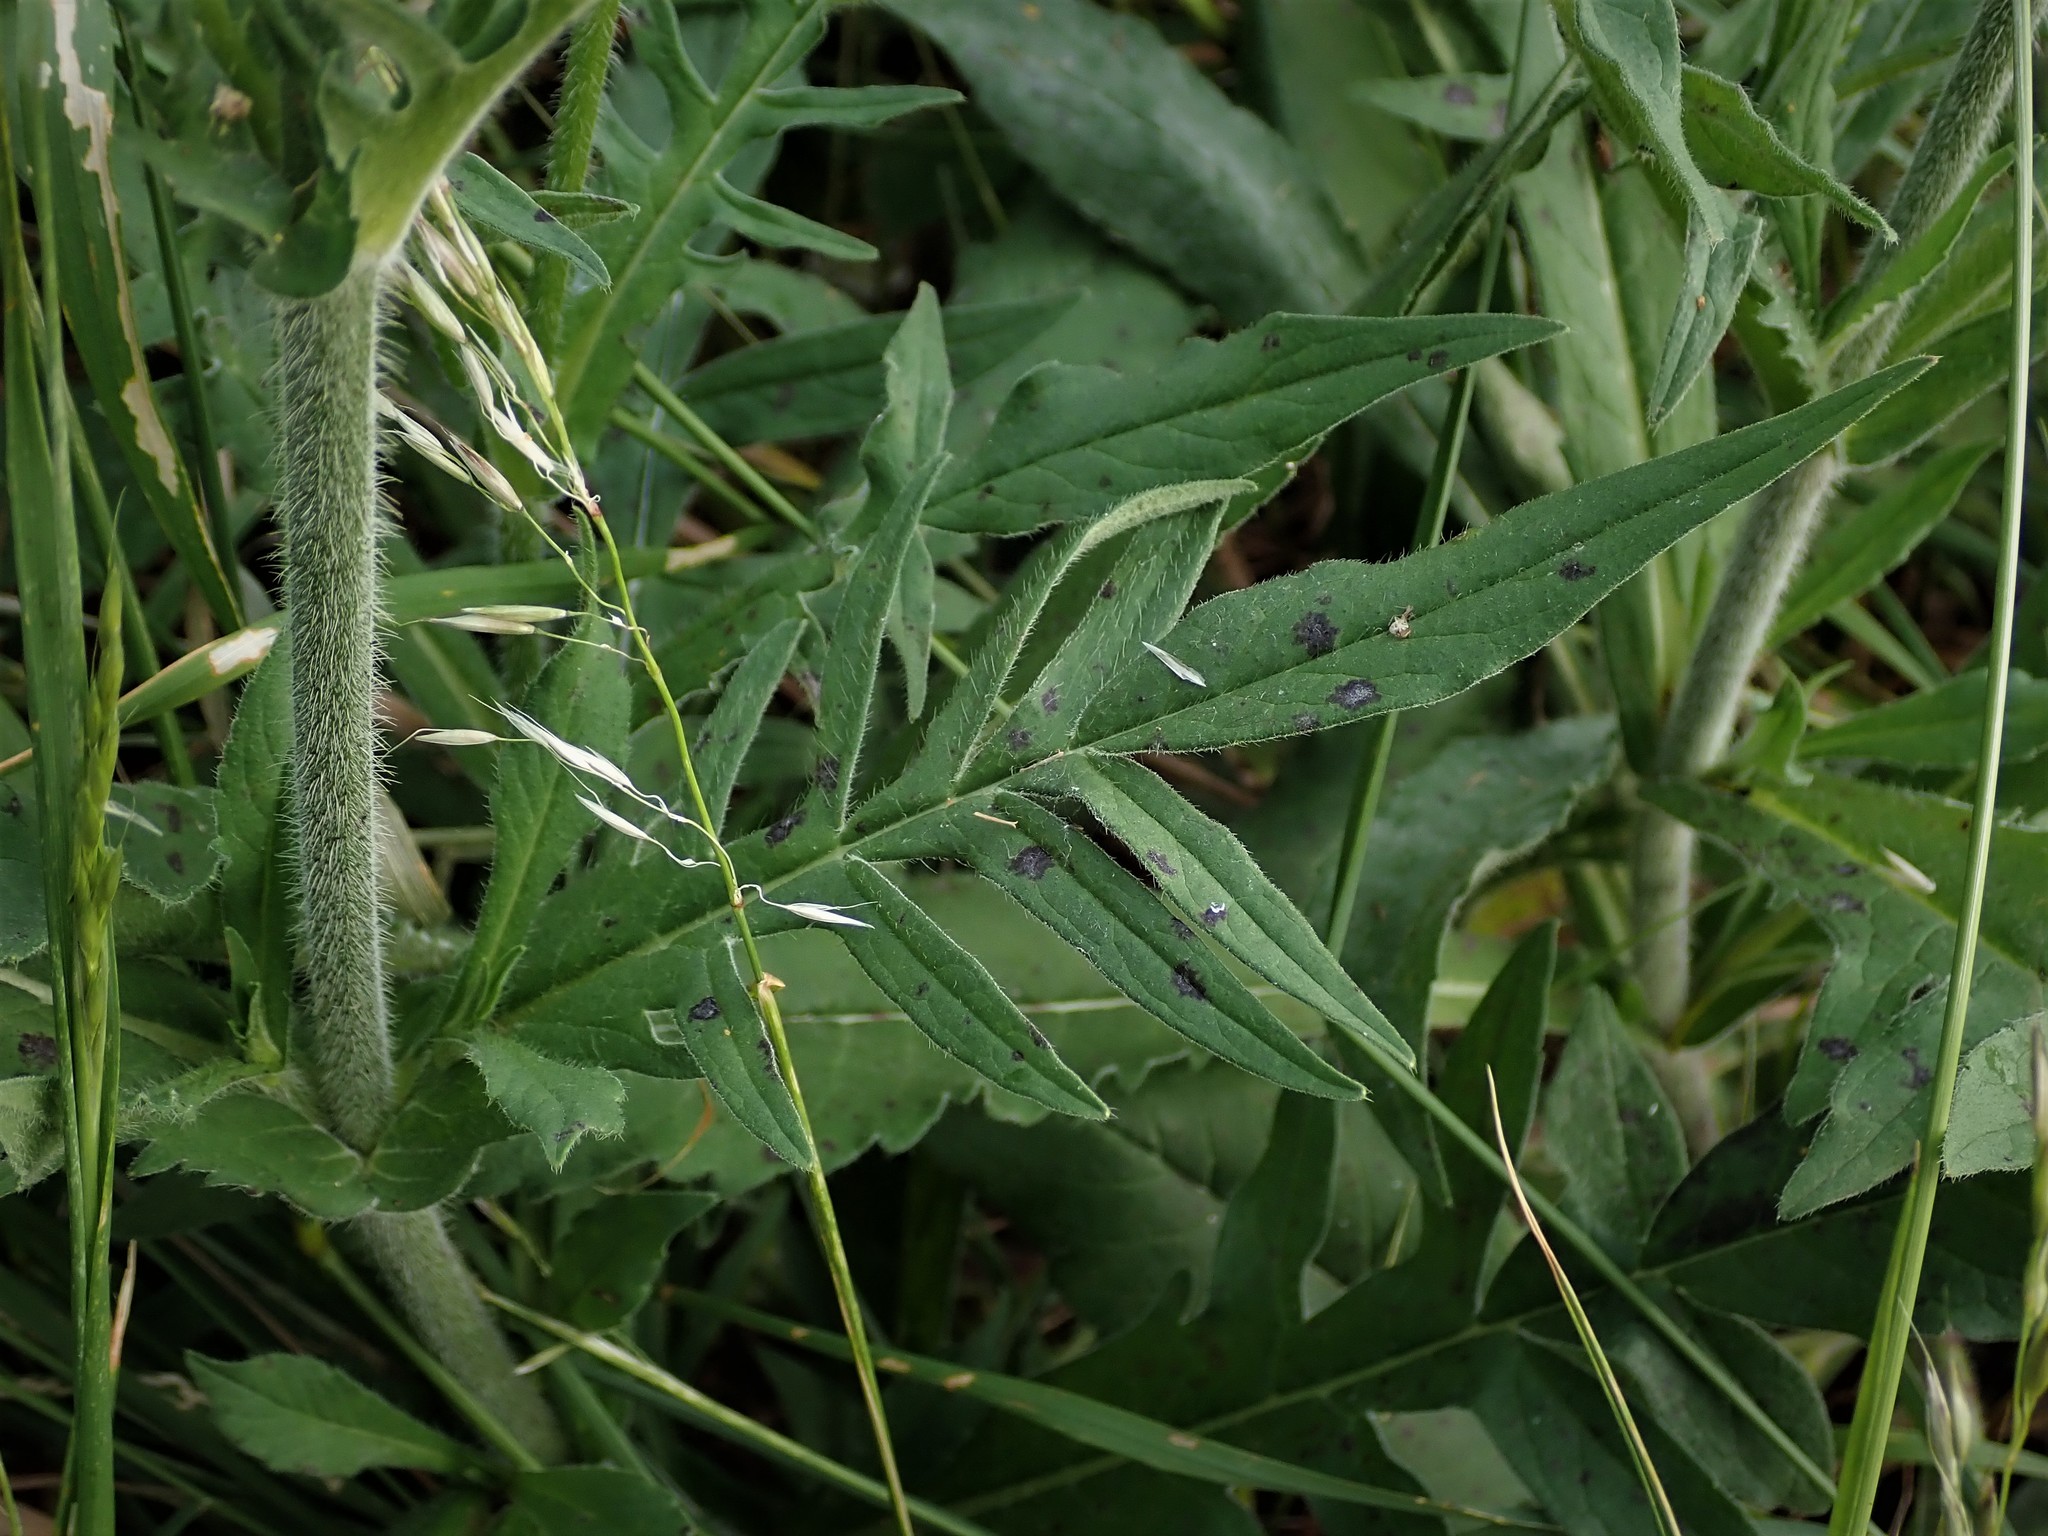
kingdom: Plantae
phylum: Tracheophyta
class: Magnoliopsida
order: Dipsacales
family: Caprifoliaceae
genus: Knautia
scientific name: Knautia arvensis
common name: Field scabiosa
